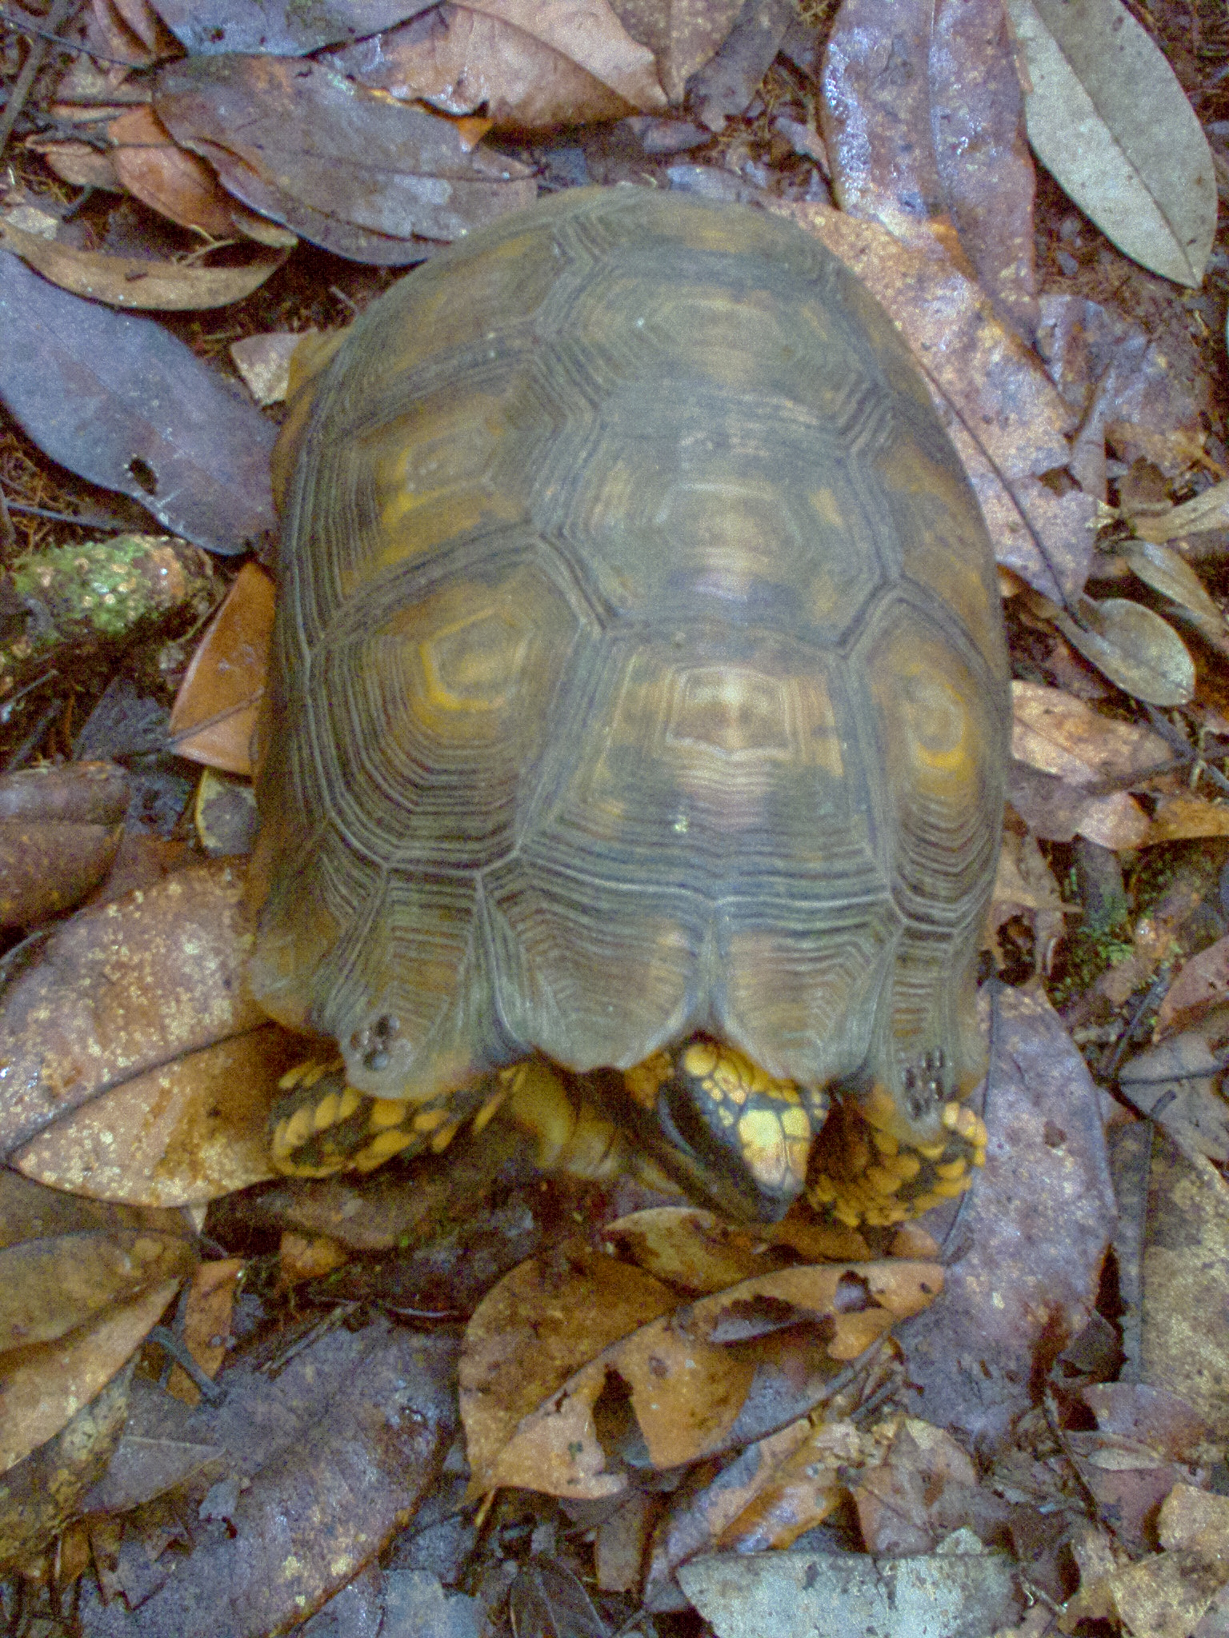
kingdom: Animalia
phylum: Chordata
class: Testudines
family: Testudinidae
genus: Chelonoidis
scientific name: Chelonoidis denticulatus
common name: Yellow-footed tortoise
